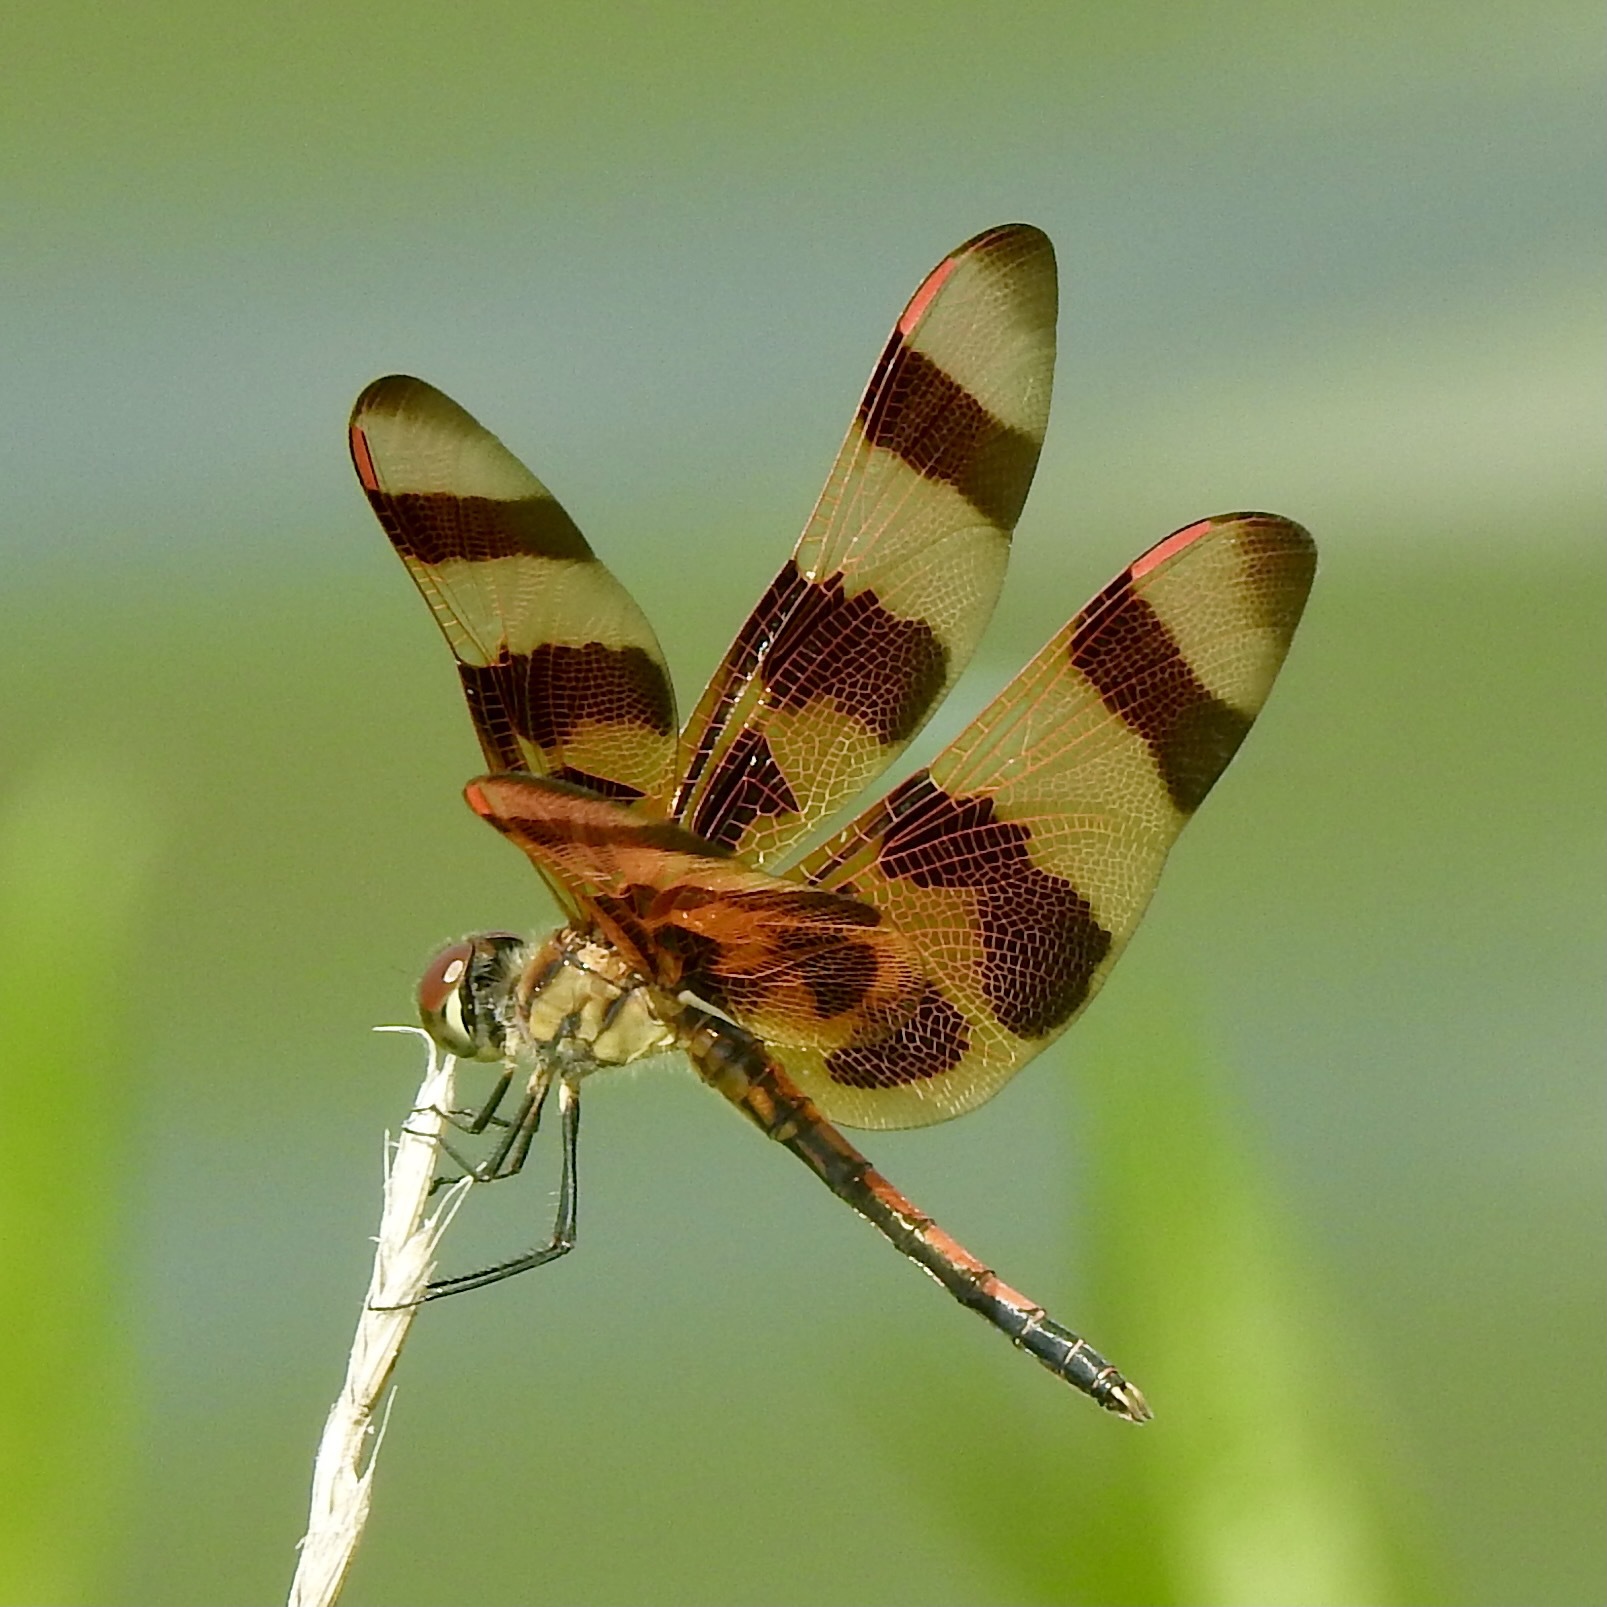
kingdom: Animalia
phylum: Arthropoda
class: Insecta
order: Odonata
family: Libellulidae
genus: Celithemis
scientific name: Celithemis eponina
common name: Halloween pennant
